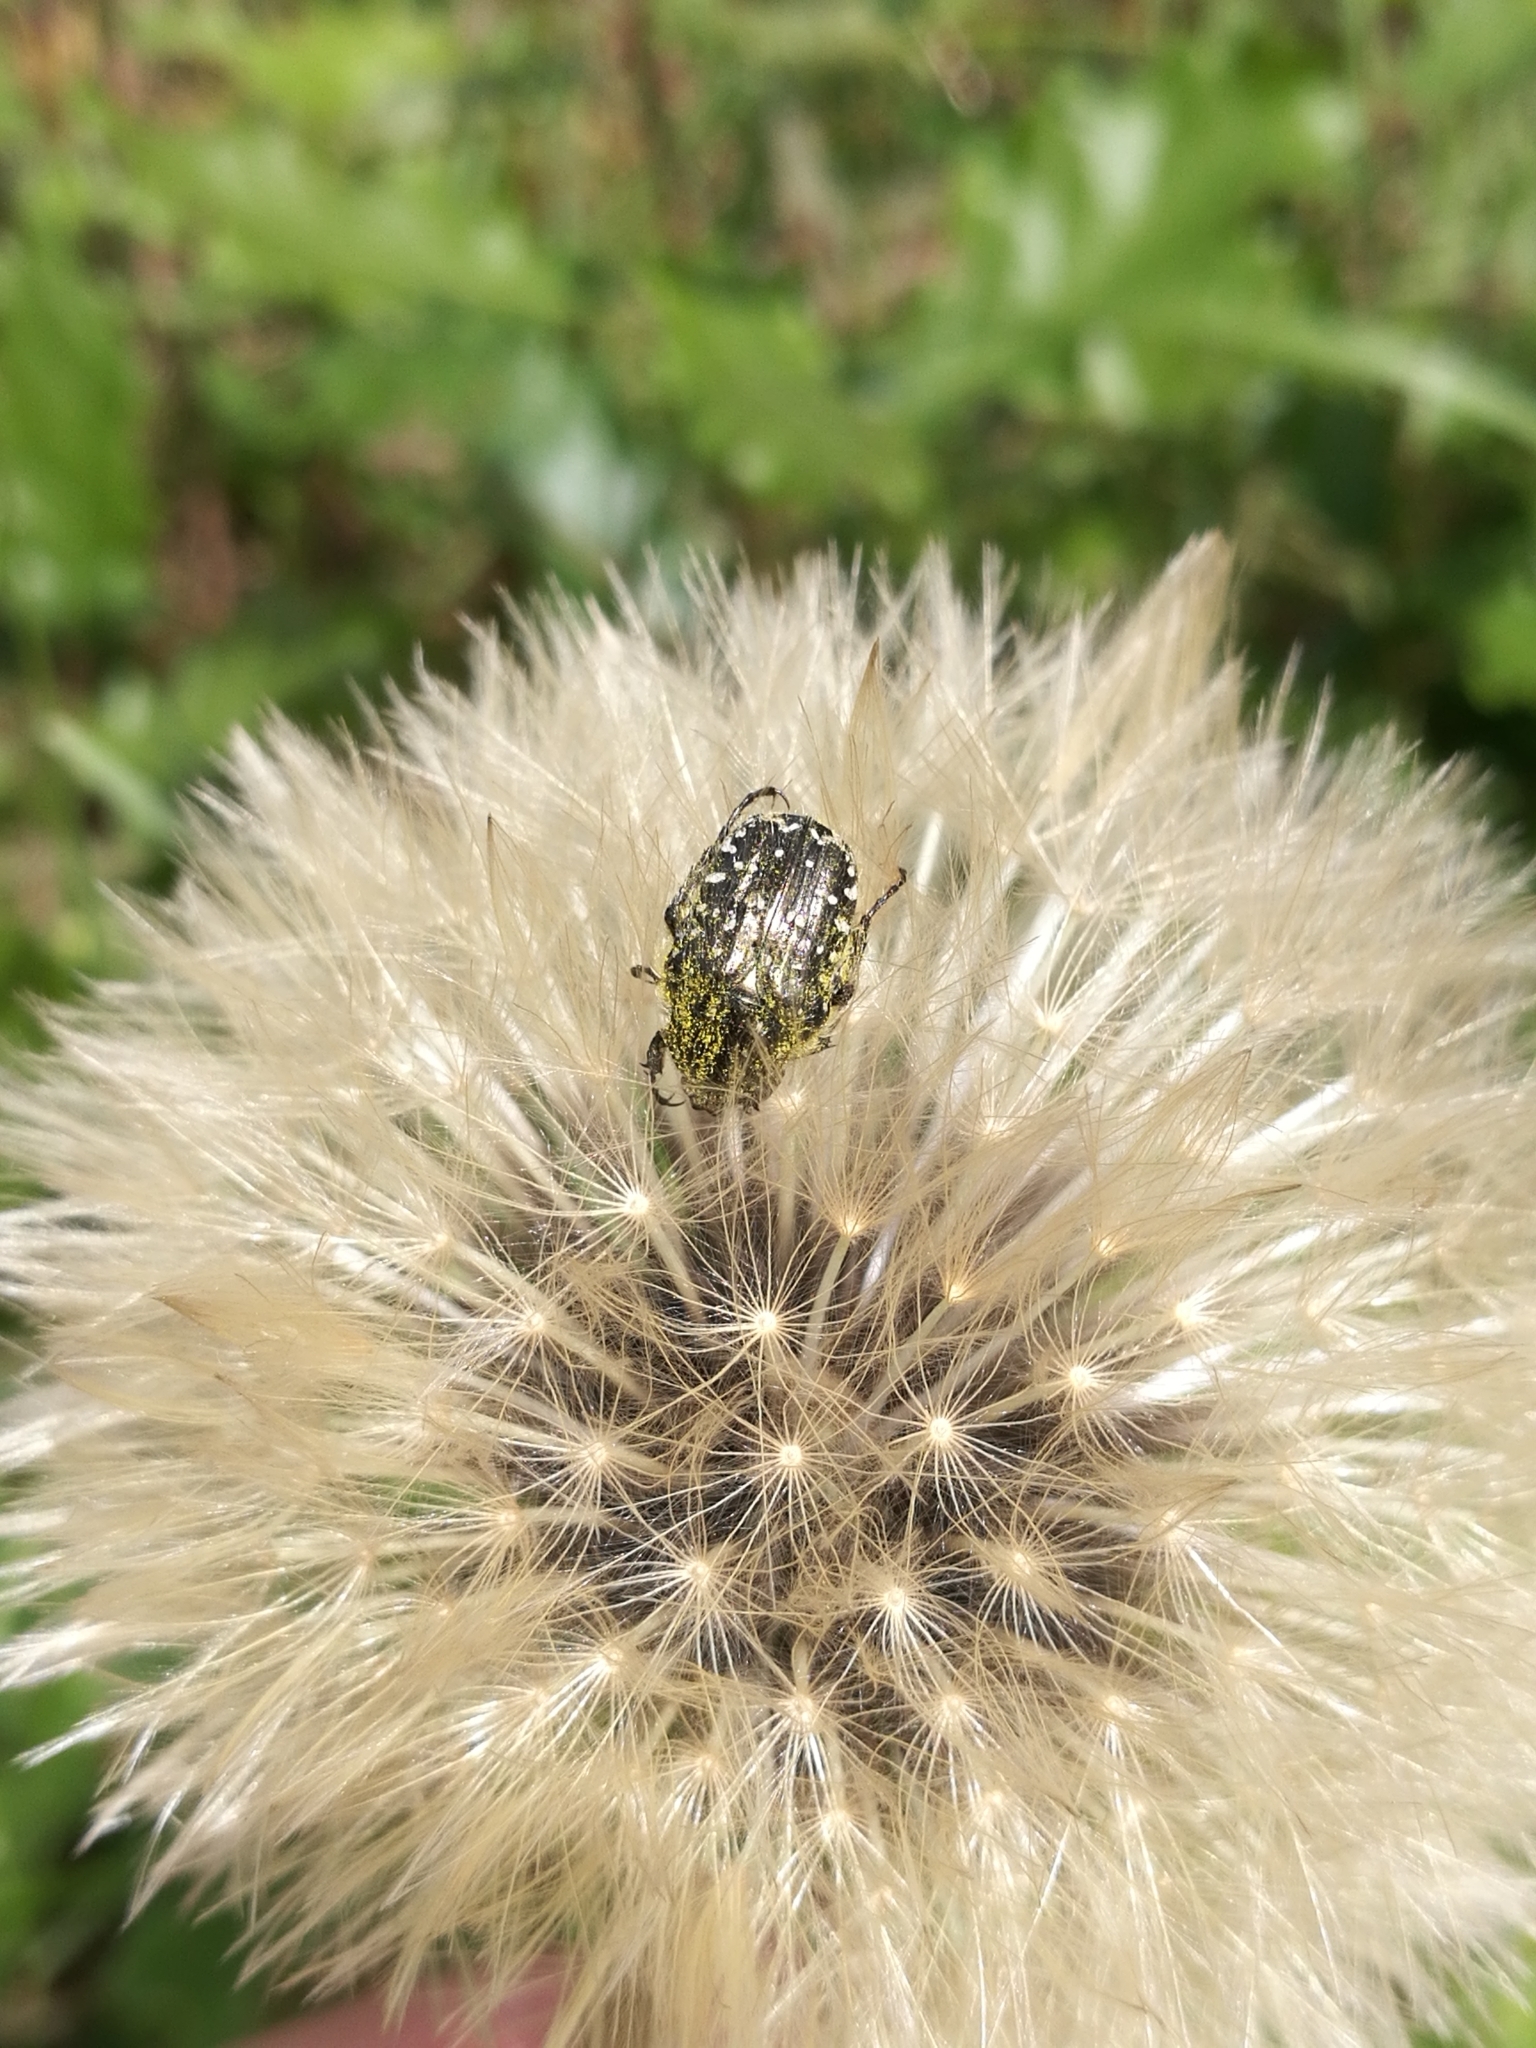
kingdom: Animalia
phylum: Arthropoda
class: Insecta
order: Coleoptera
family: Scarabaeidae
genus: Oxythyrea
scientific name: Oxythyrea funesta
